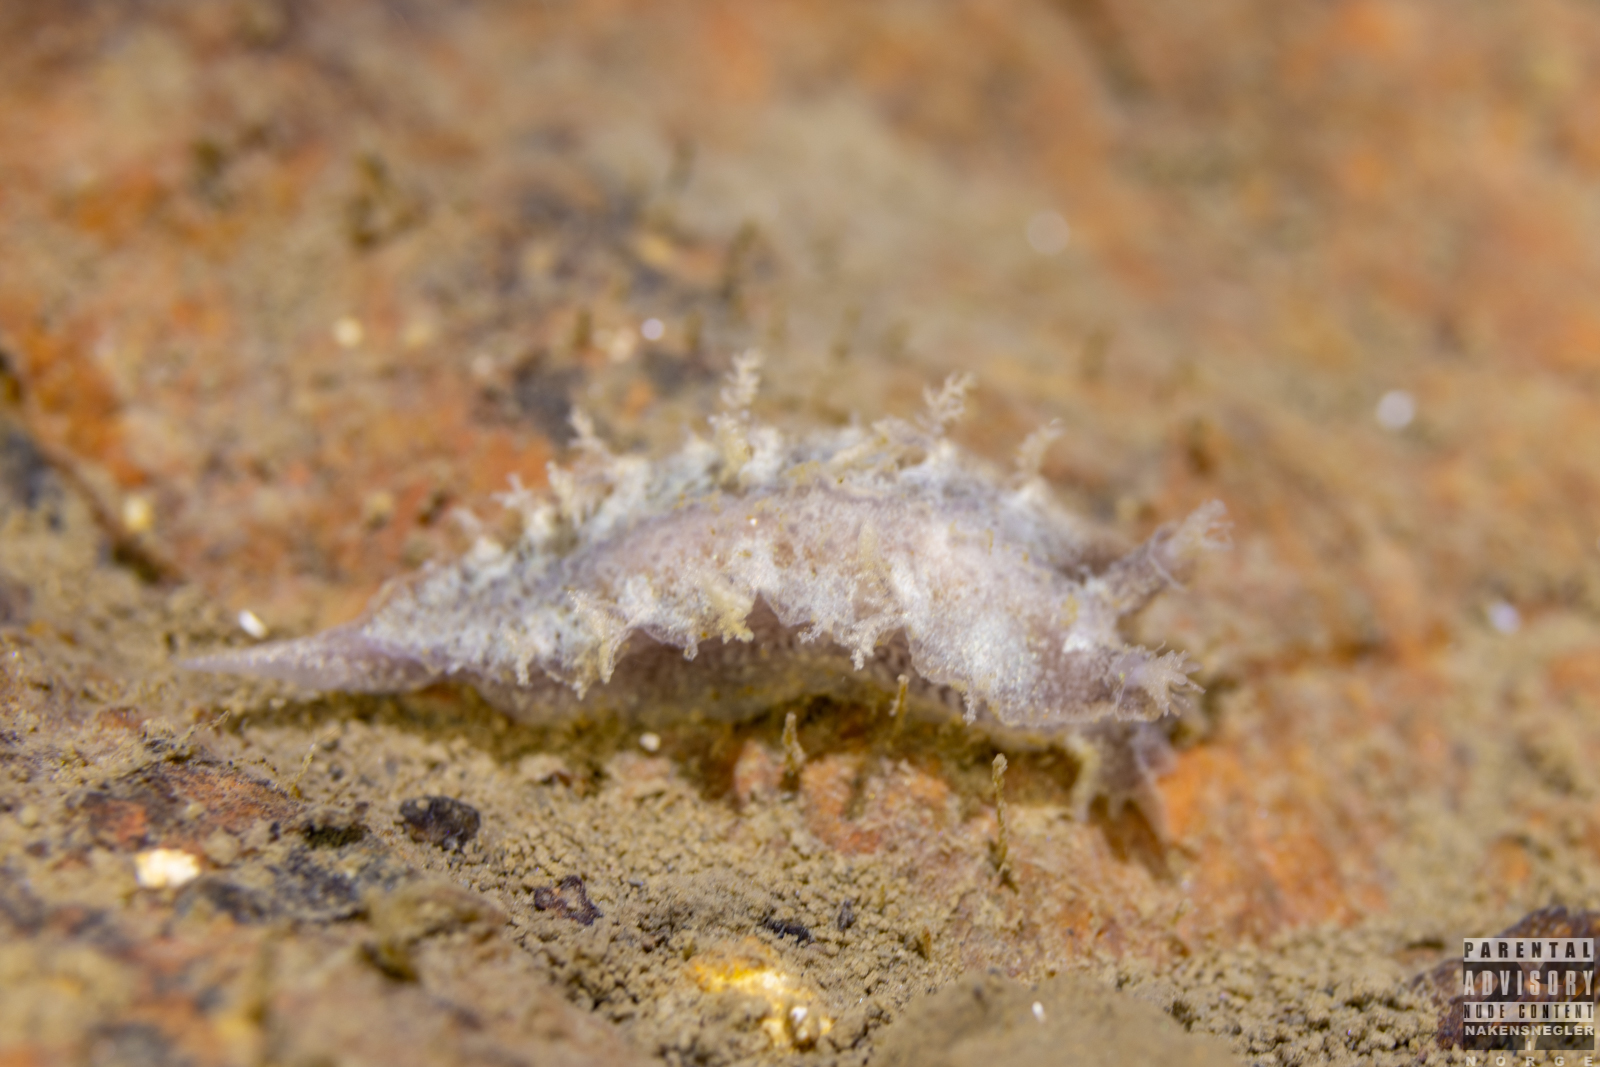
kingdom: Animalia
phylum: Mollusca
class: Gastropoda
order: Nudibranchia
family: Tritoniidae
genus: Duvaucelia
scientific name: Duvaucelia plebeia
